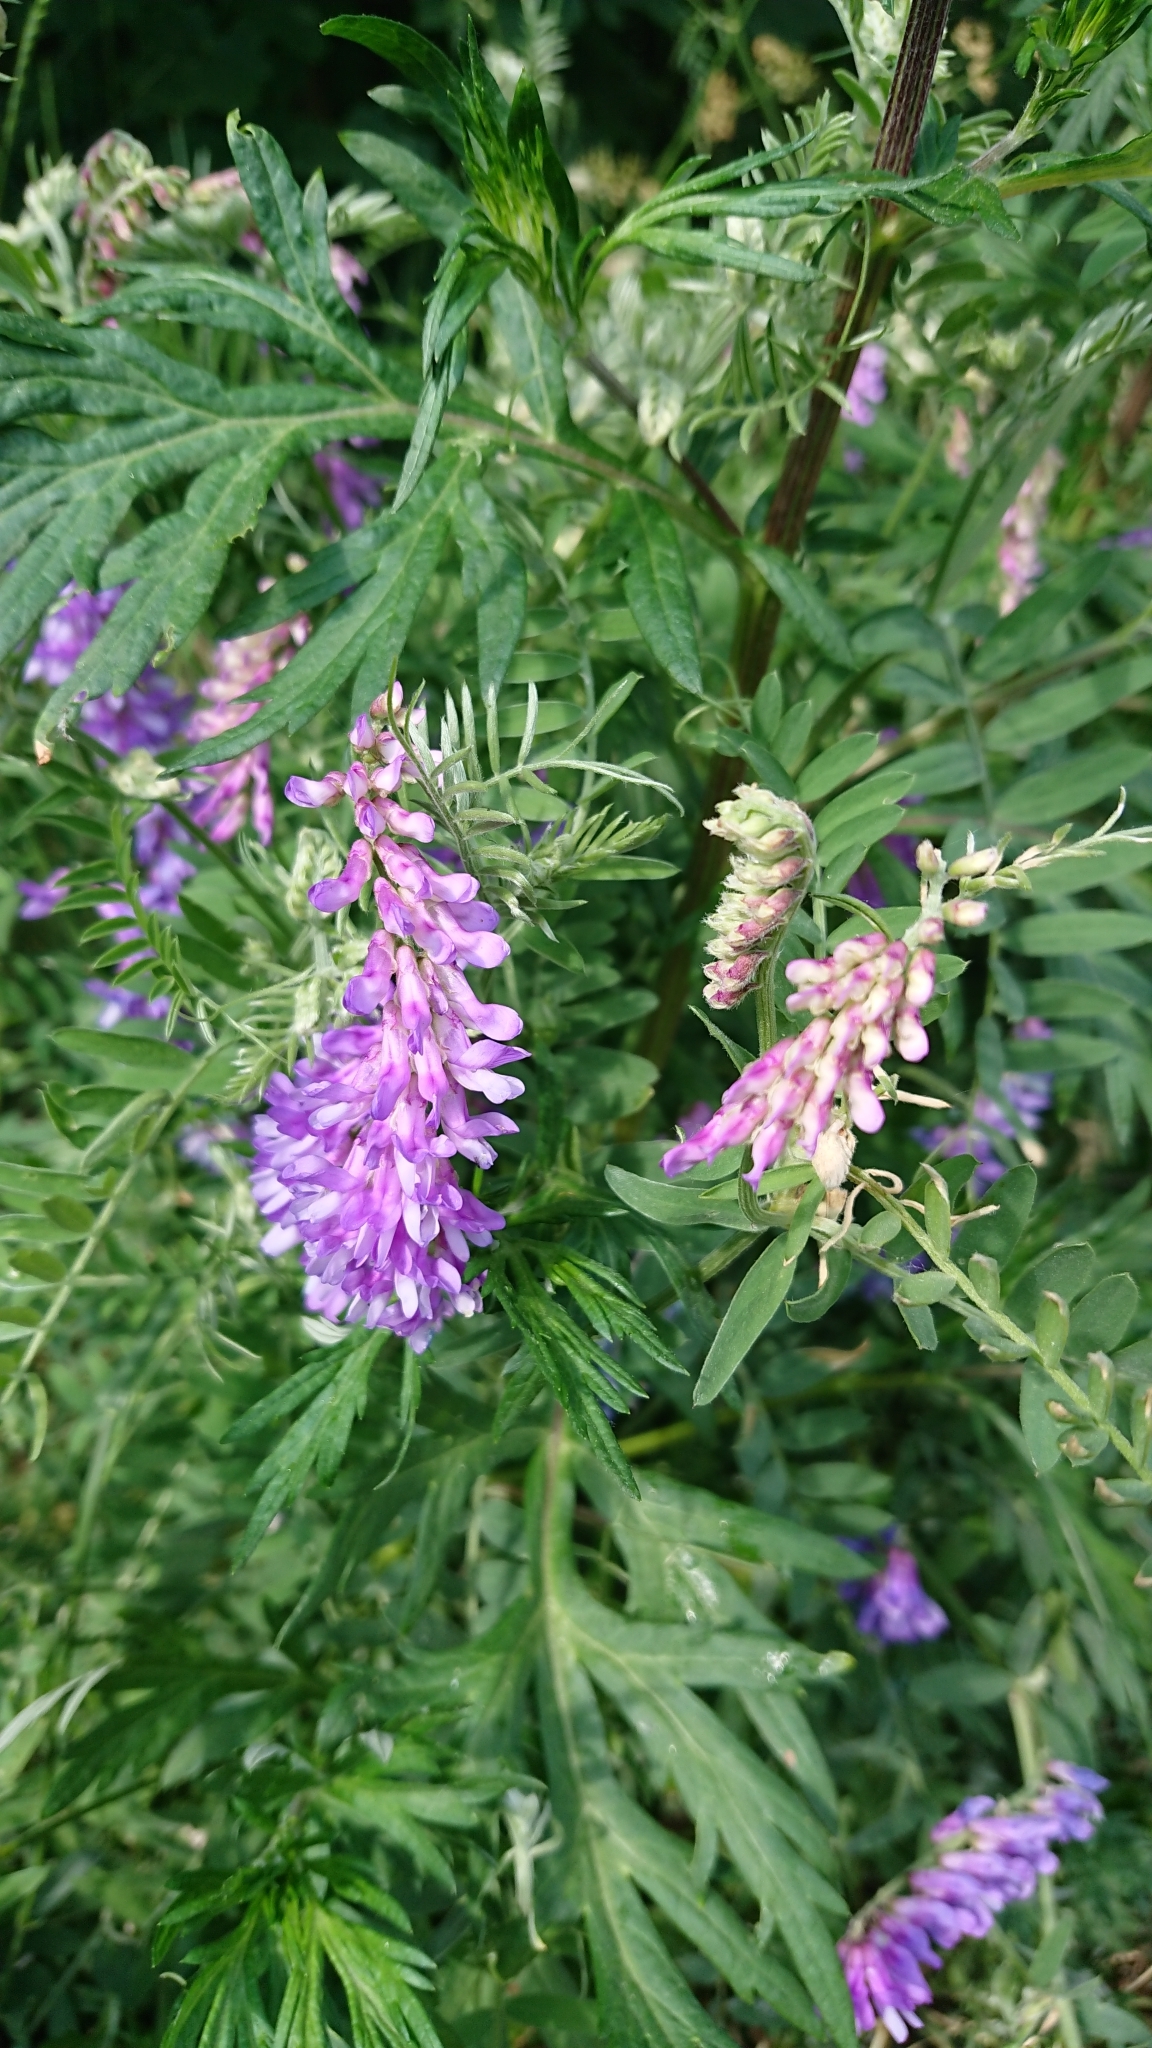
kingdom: Plantae
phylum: Tracheophyta
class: Magnoliopsida
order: Fabales
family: Fabaceae
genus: Vicia
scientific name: Vicia cracca
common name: Bird vetch
